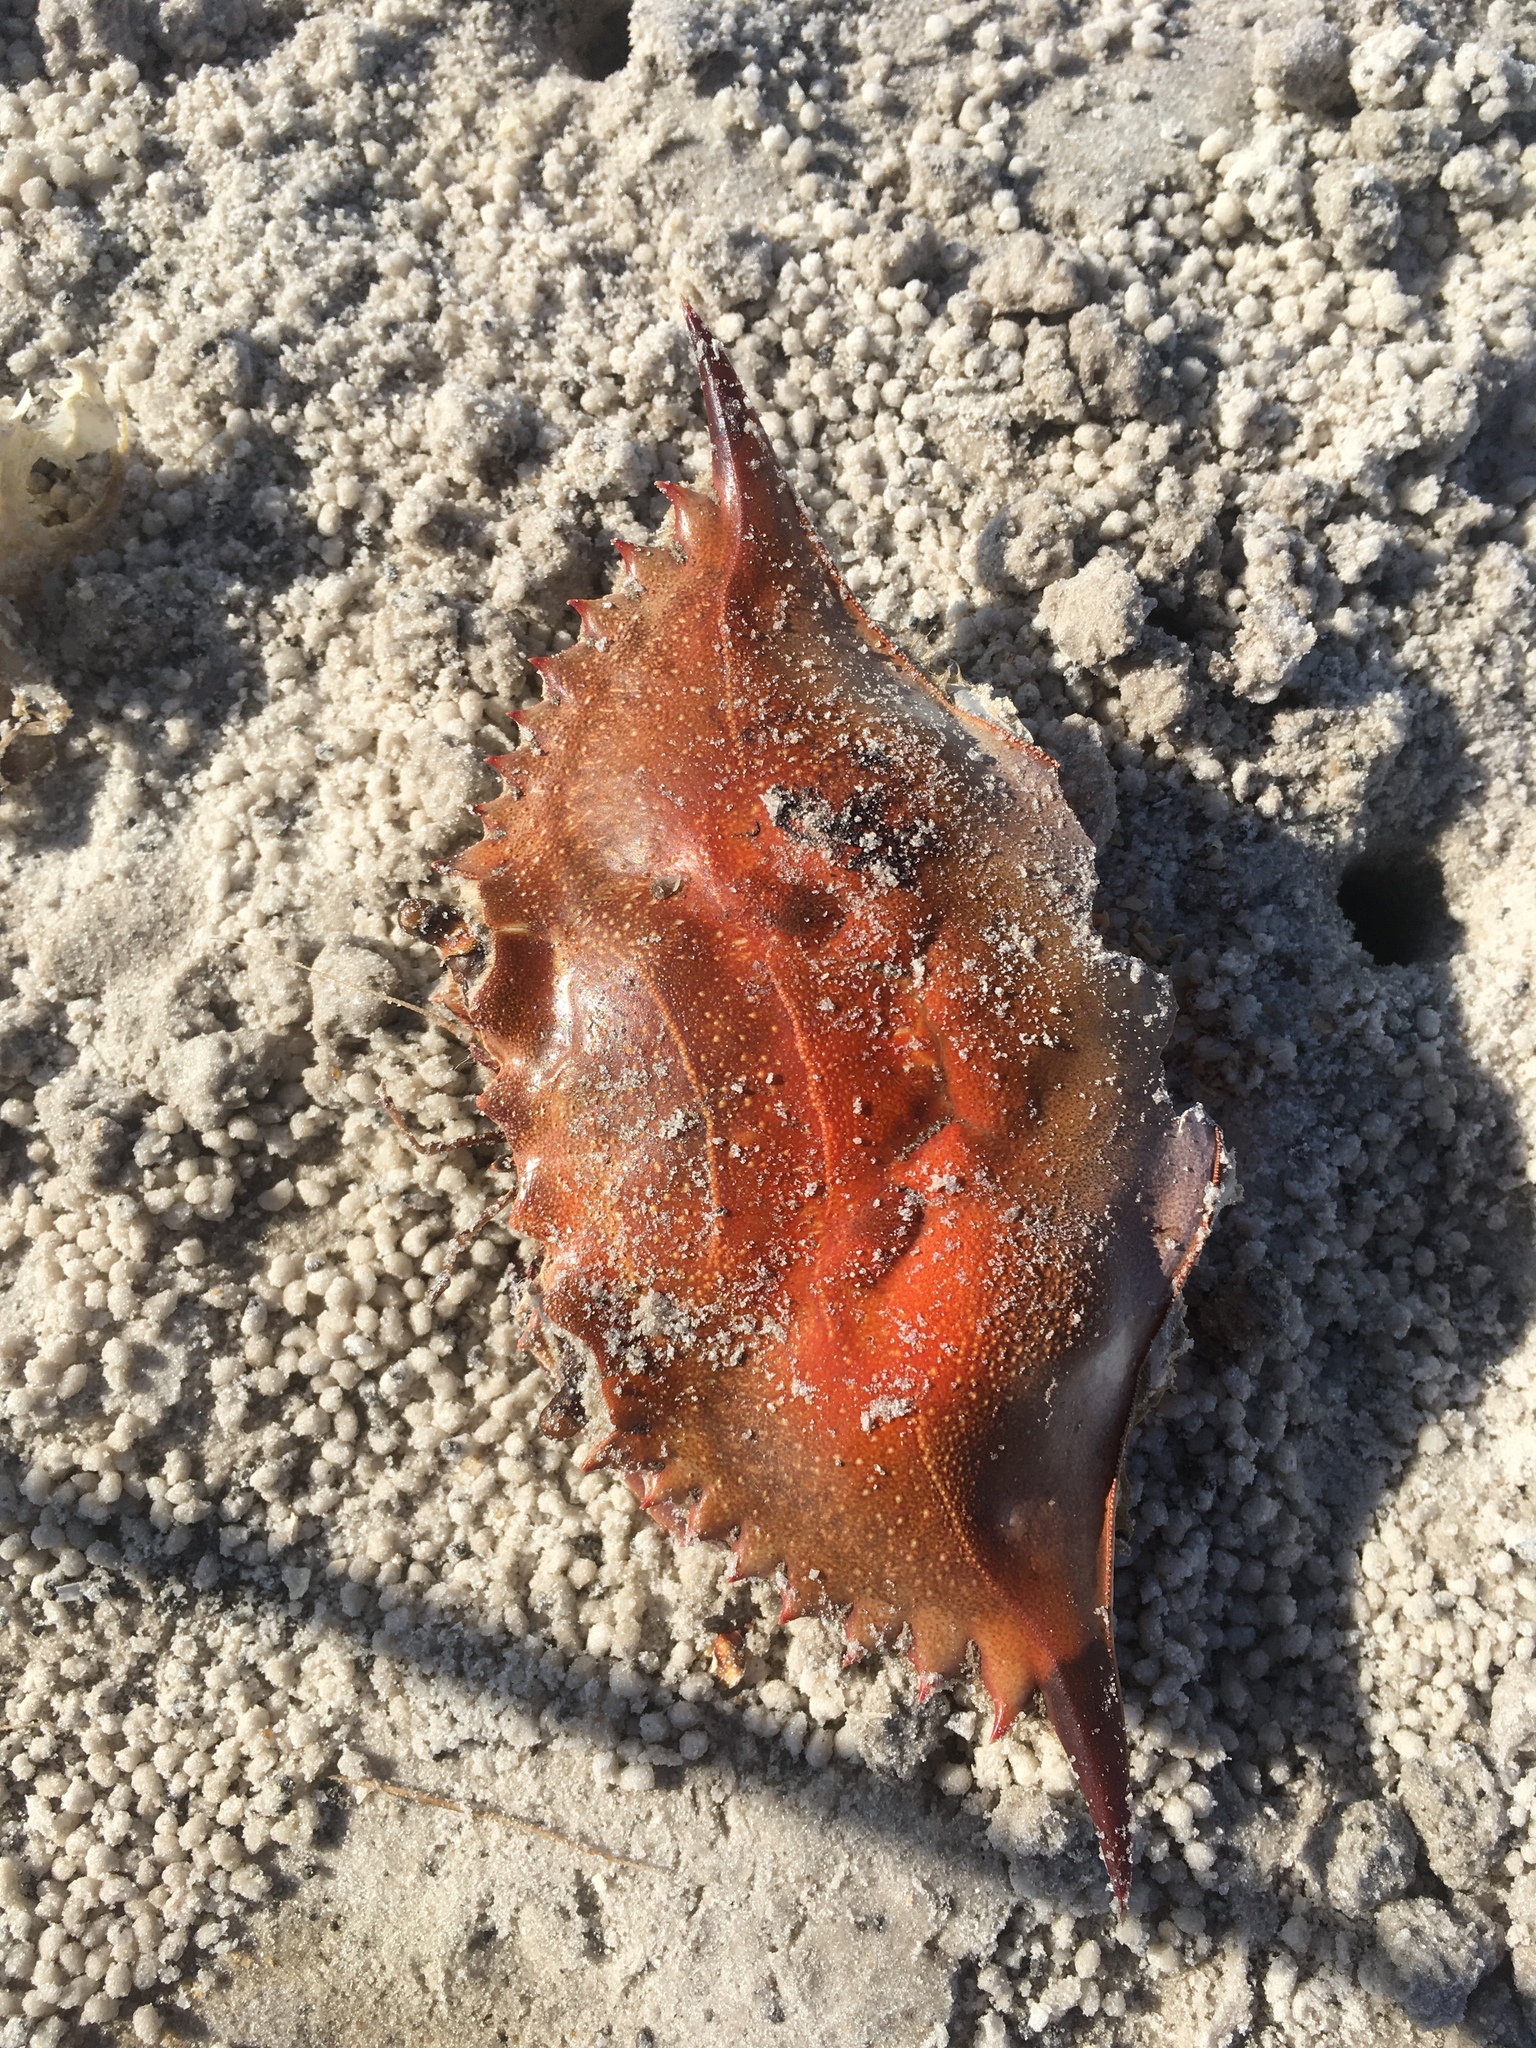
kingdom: Animalia
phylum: Arthropoda
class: Malacostraca
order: Decapoda
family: Portunidae
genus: Callinectes
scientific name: Callinectes sapidus
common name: Blue crab
